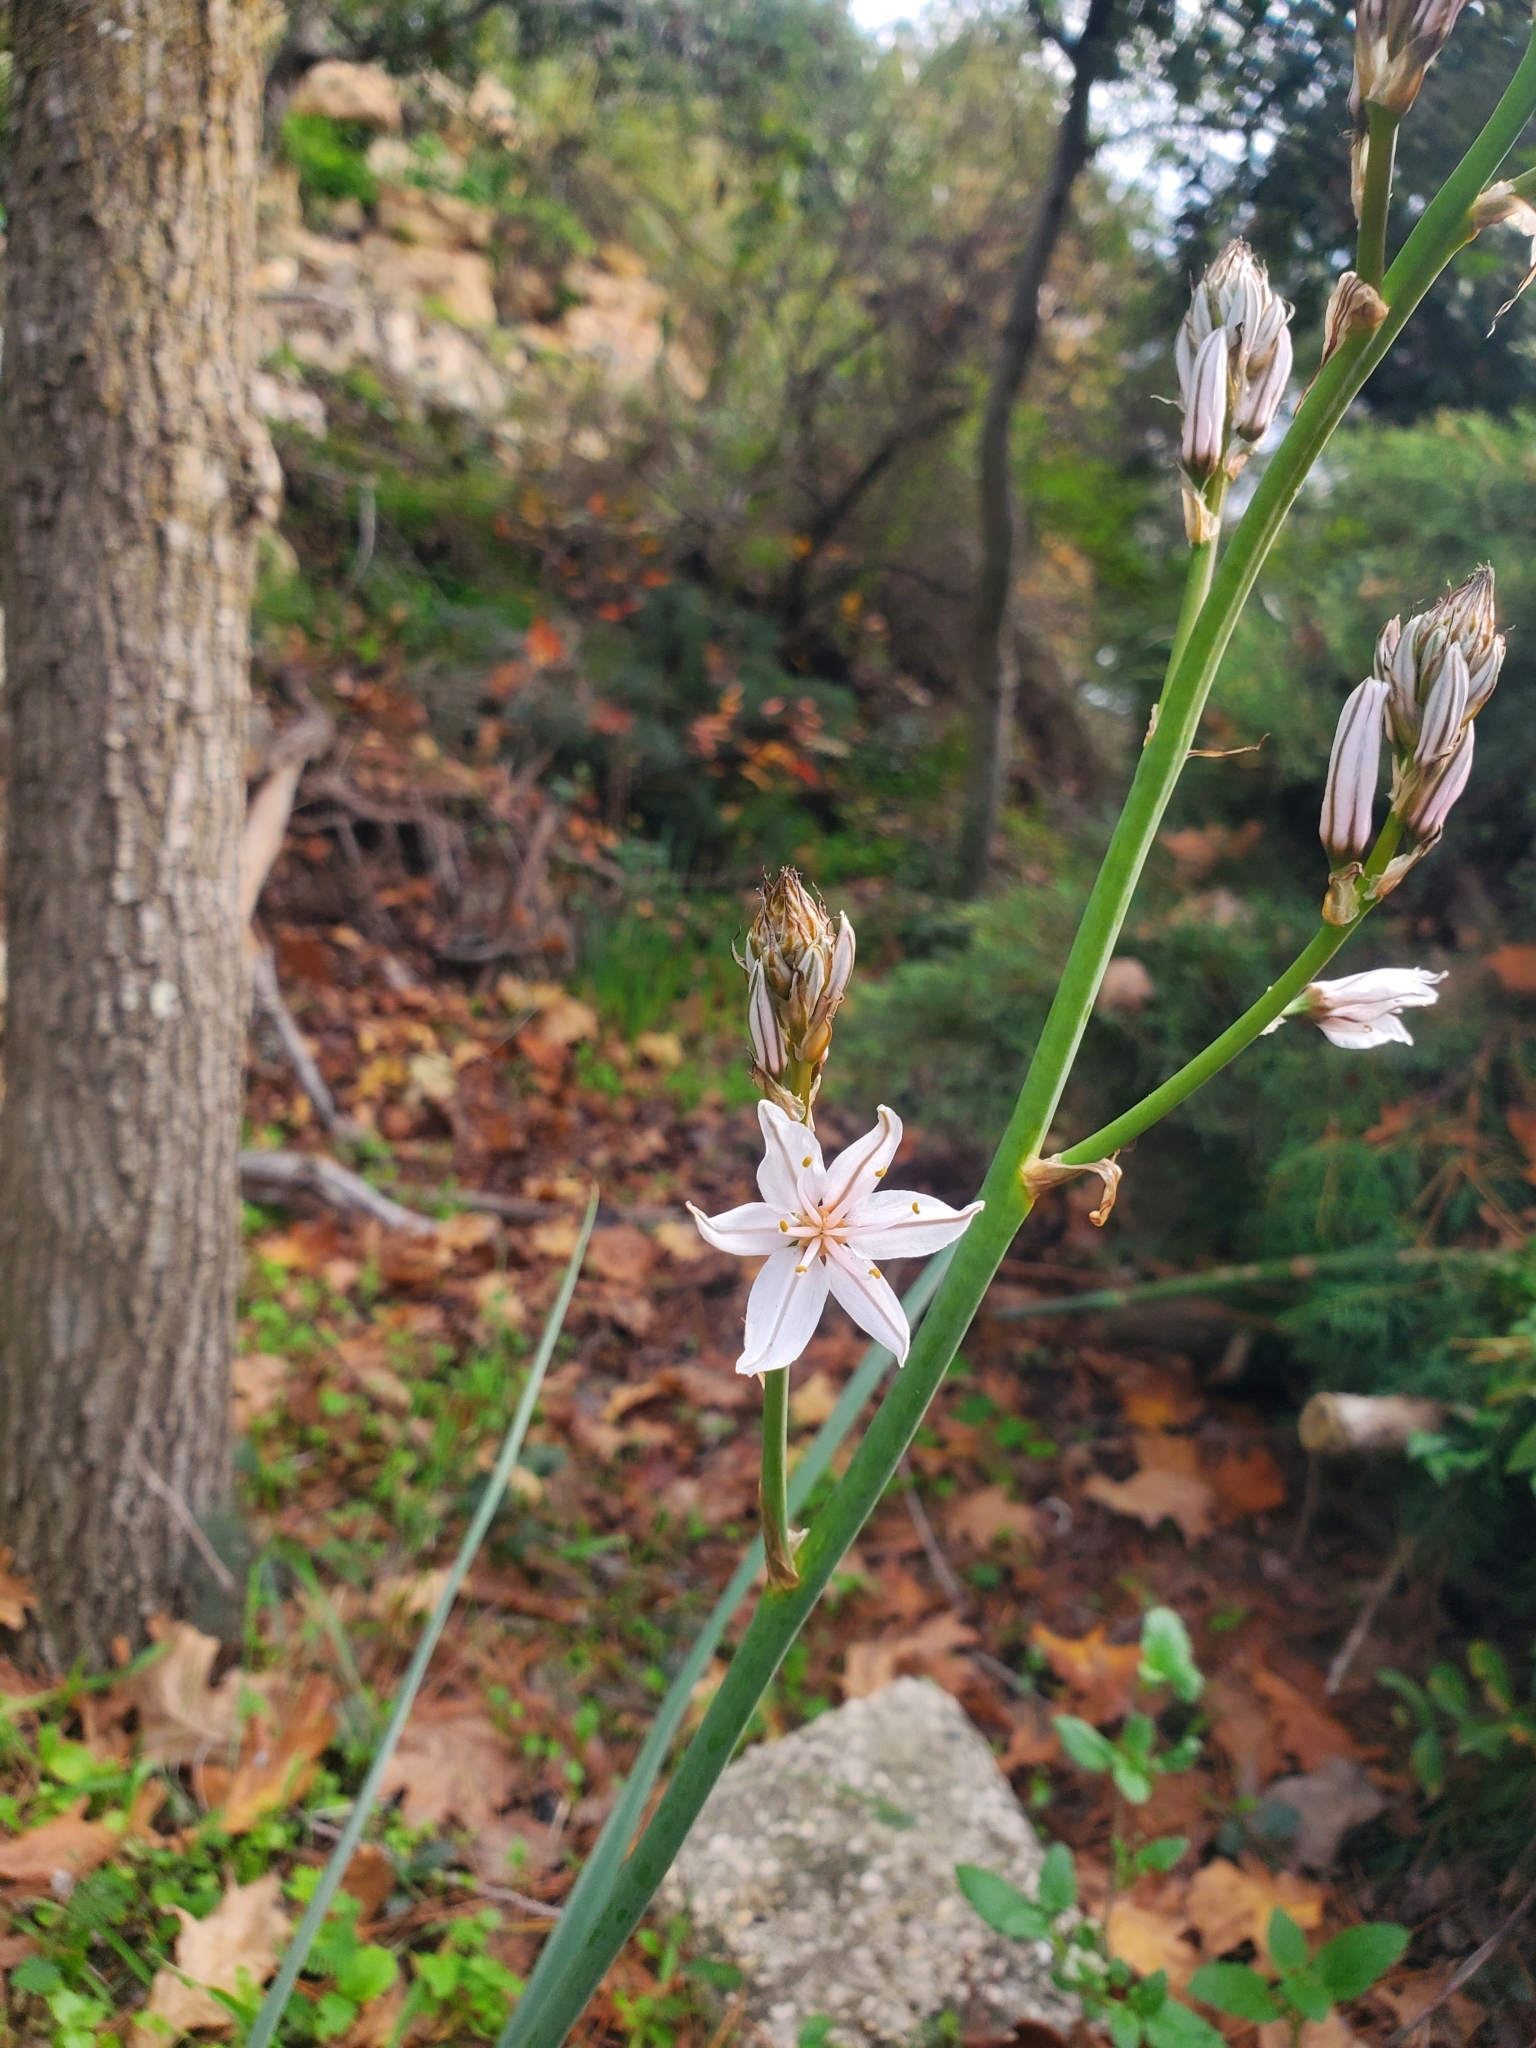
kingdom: Plantae
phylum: Tracheophyta
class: Liliopsida
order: Asparagales
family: Asphodelaceae
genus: Asphodelus
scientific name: Asphodelus ramosus
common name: Silverrod
